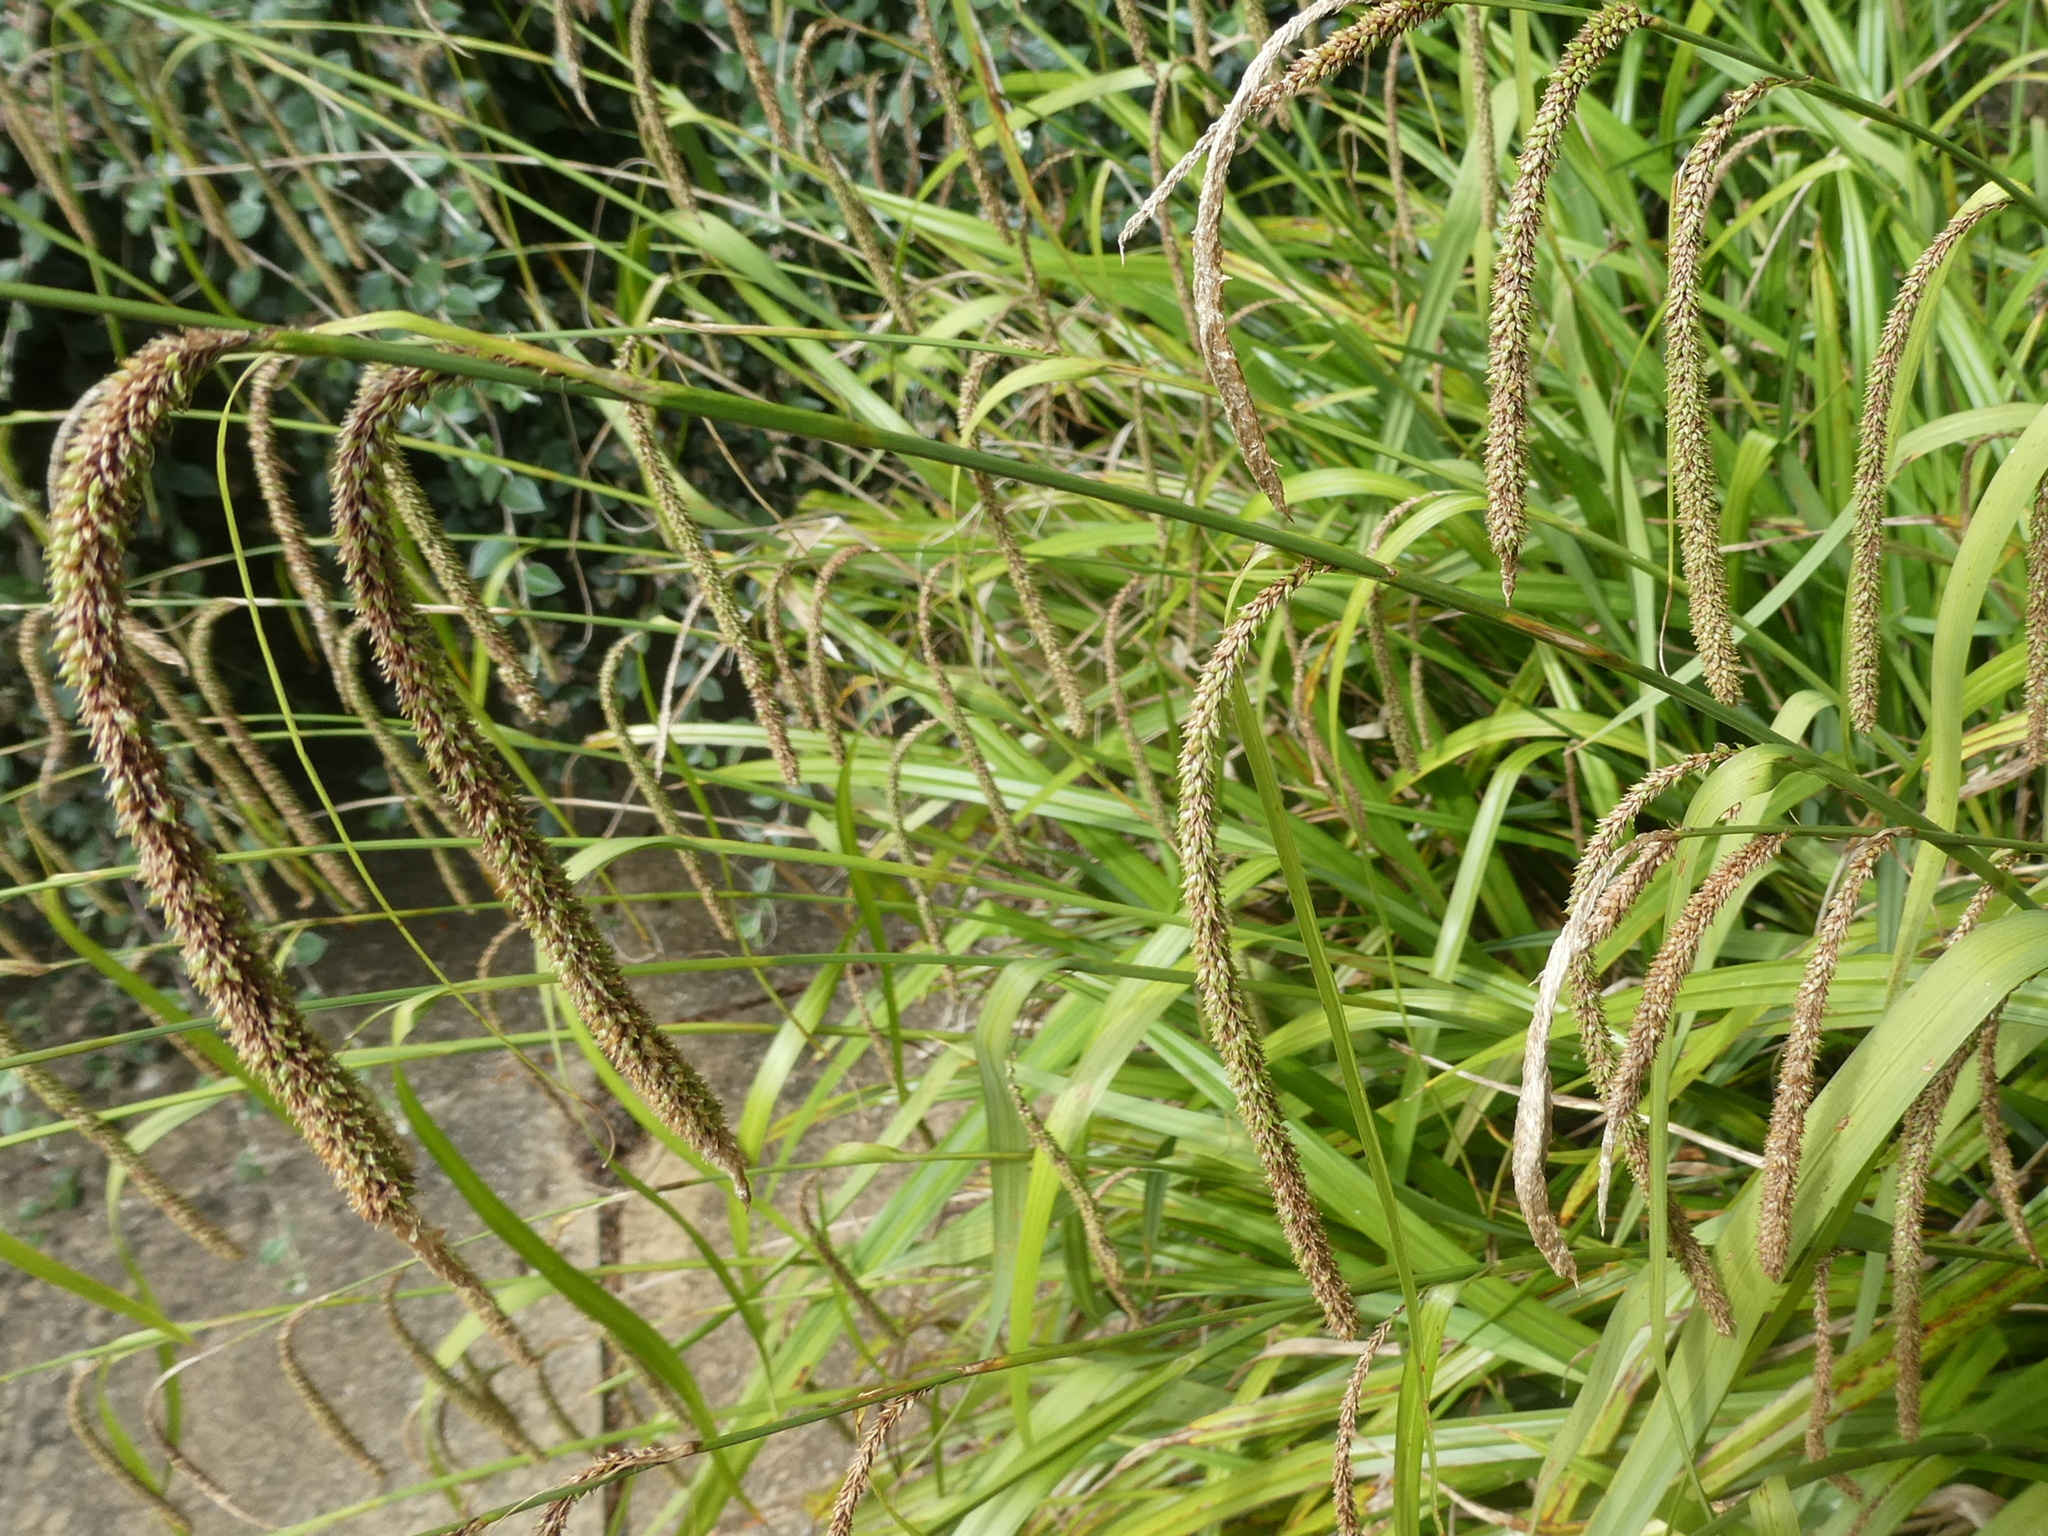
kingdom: Plantae
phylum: Tracheophyta
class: Liliopsida
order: Poales
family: Cyperaceae
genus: Carex
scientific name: Carex pendula
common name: Pendulous sedge
